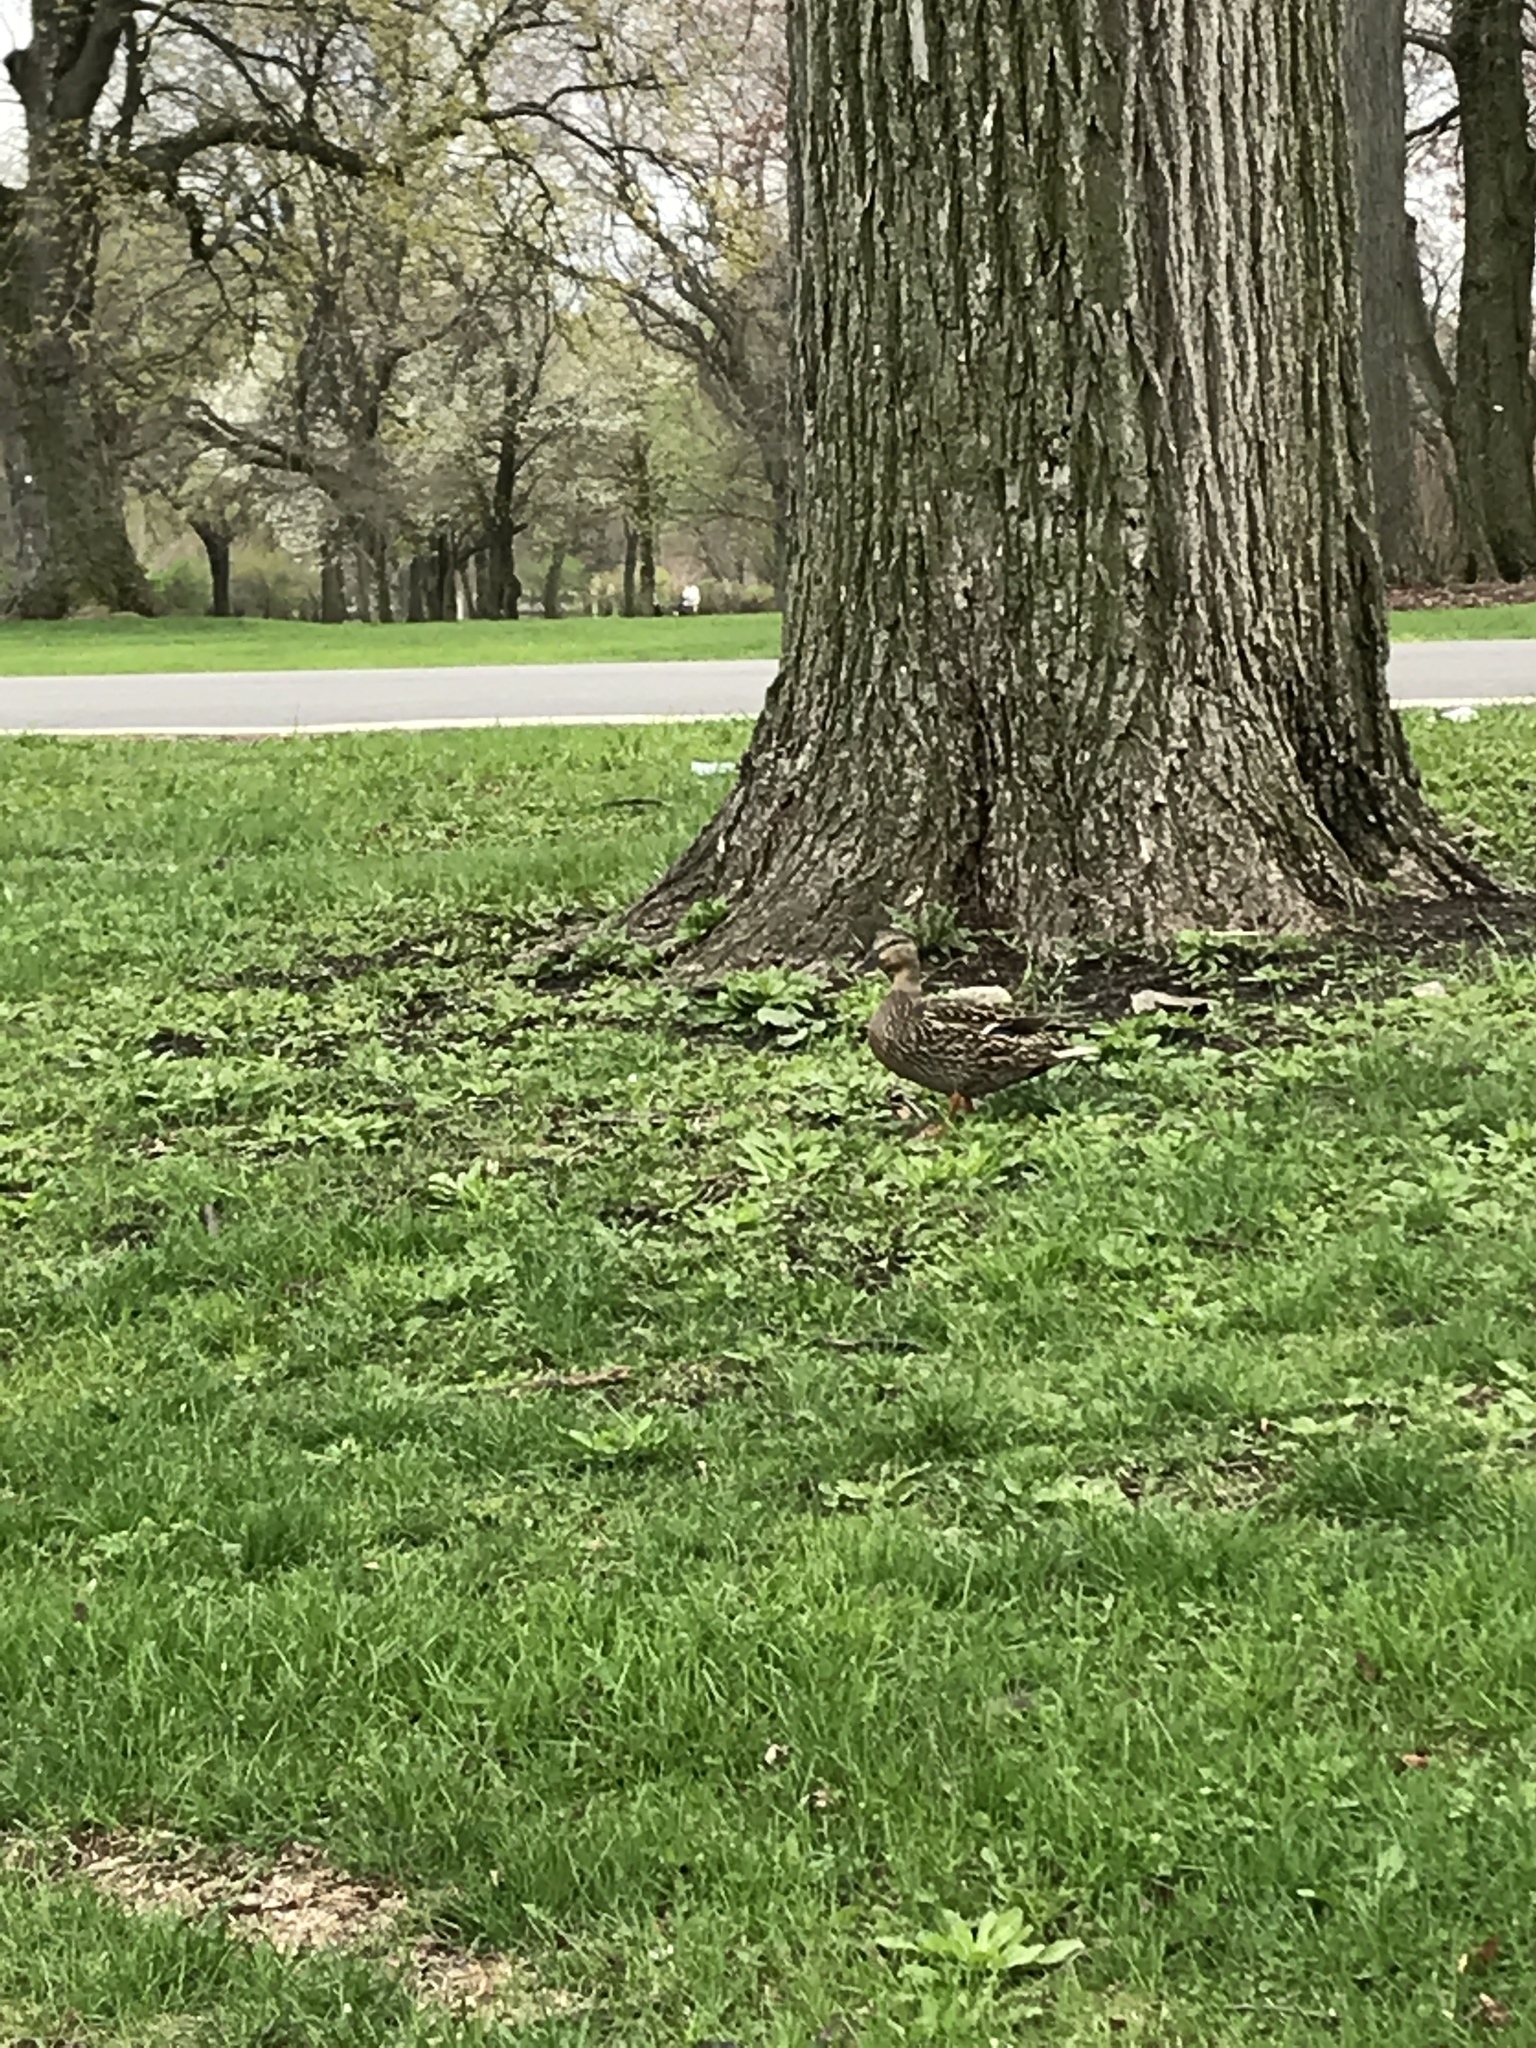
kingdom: Animalia
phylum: Chordata
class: Aves
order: Anseriformes
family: Anatidae
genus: Anas
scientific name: Anas platyrhynchos
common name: Mallard
